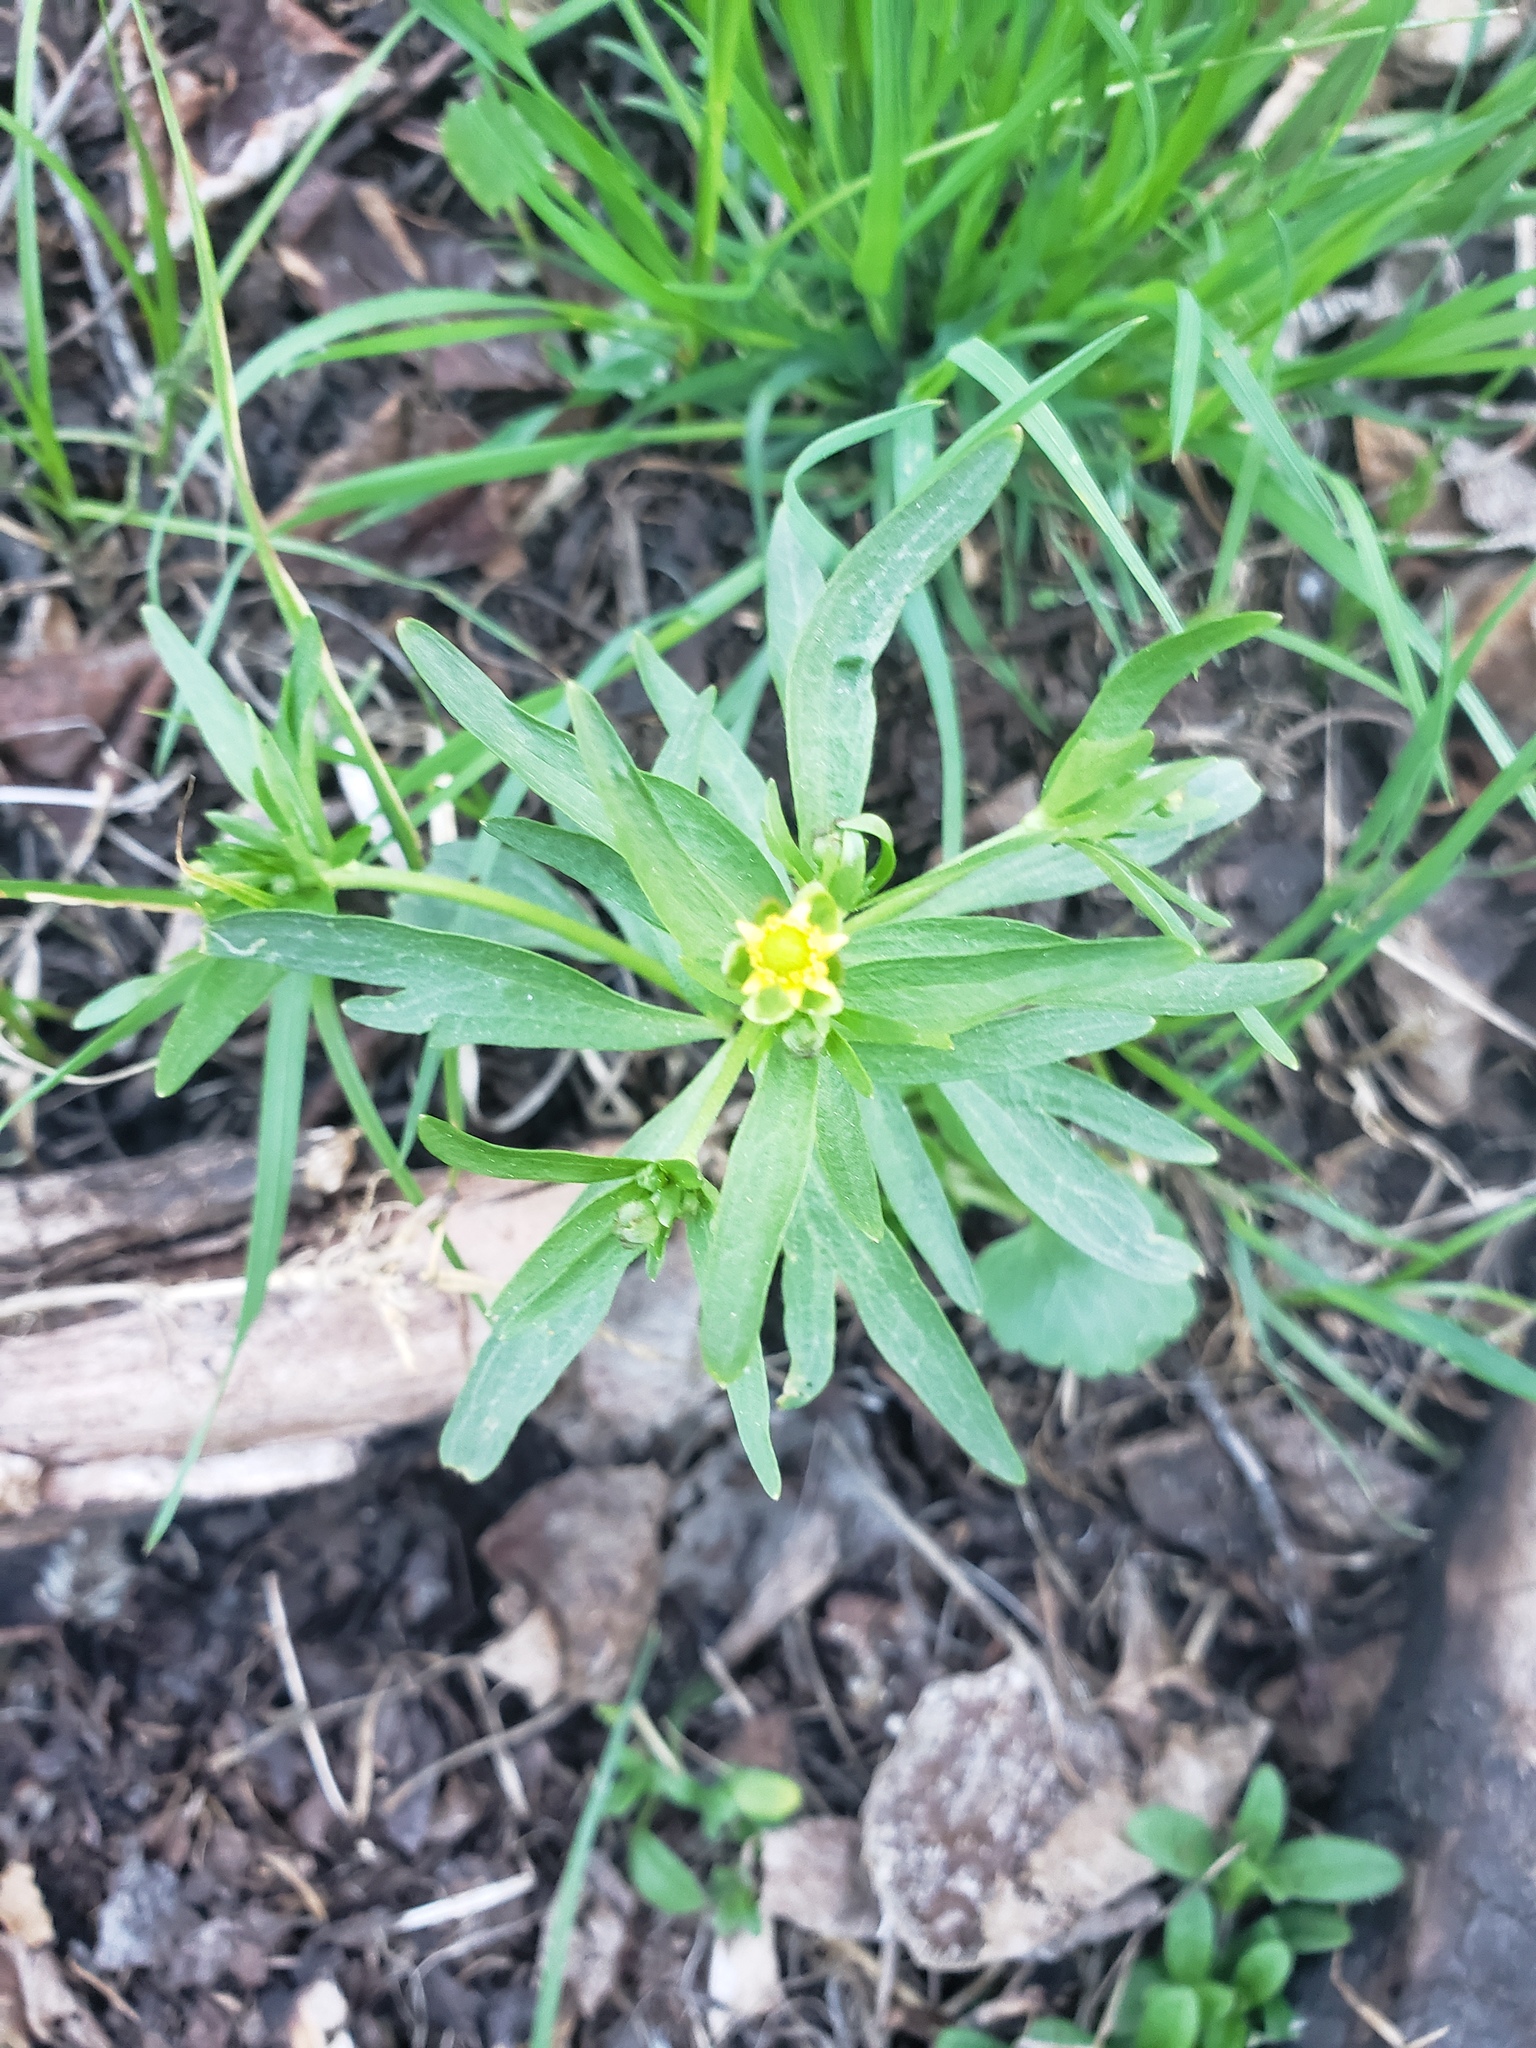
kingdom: Plantae
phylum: Tracheophyta
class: Magnoliopsida
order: Ranunculales
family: Ranunculaceae
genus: Ranunculus
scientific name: Ranunculus abortivus
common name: Early wood buttercup
